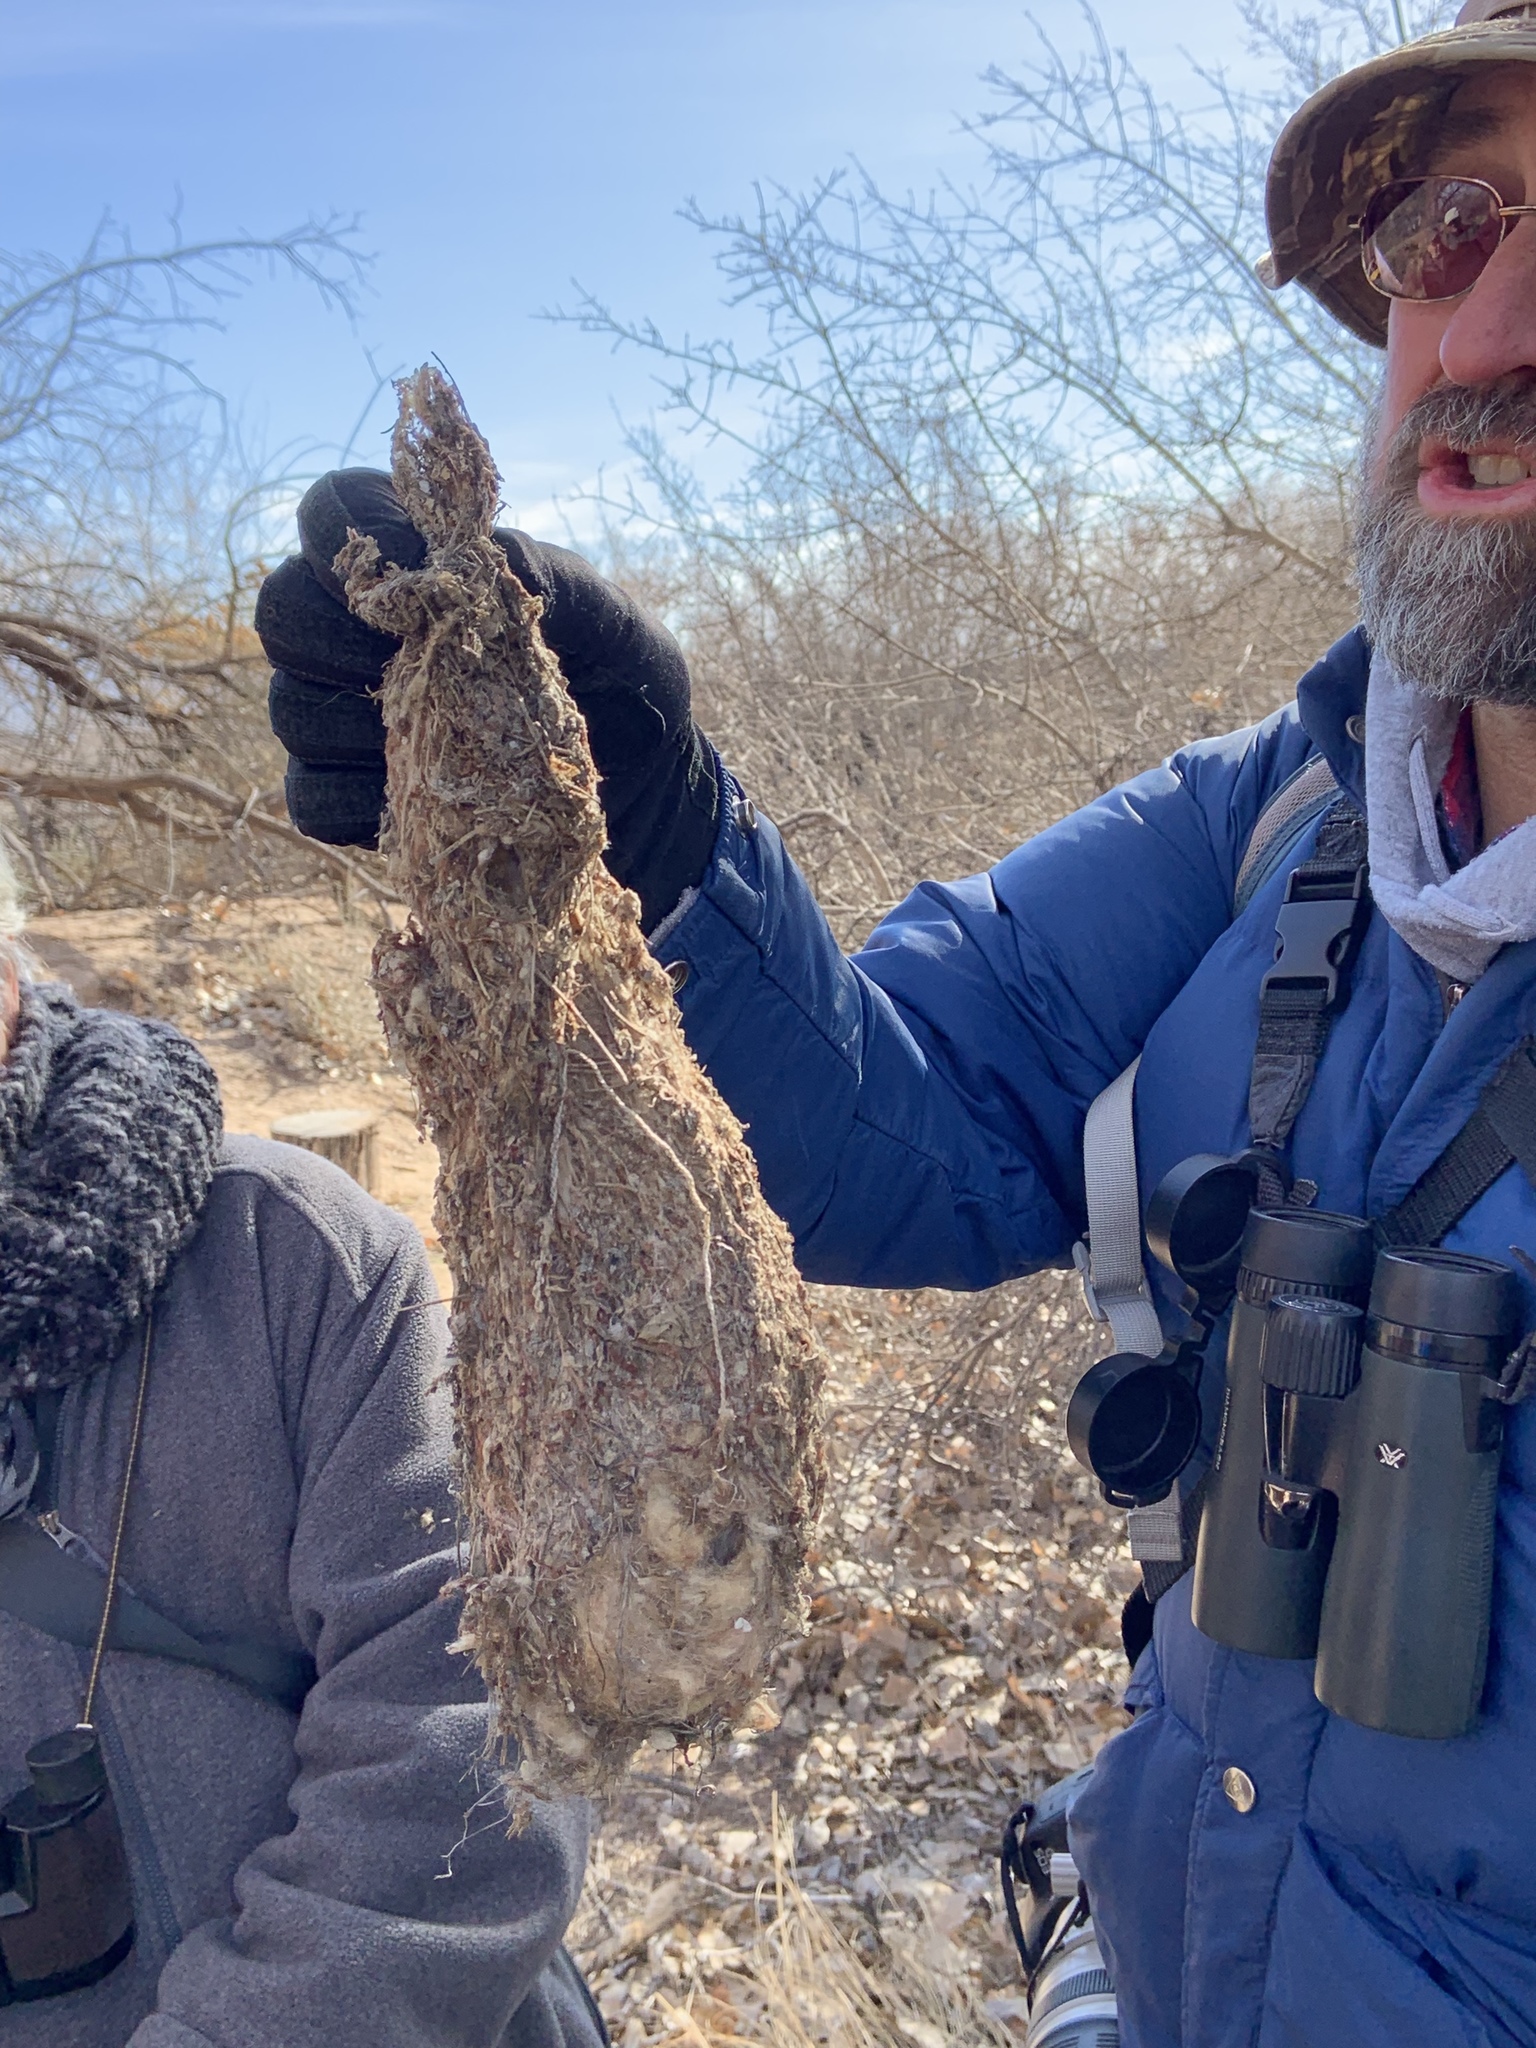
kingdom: Animalia
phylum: Chordata
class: Aves
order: Passeriformes
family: Aegithalidae
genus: Psaltriparus
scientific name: Psaltriparus minimus
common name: American bushtit
